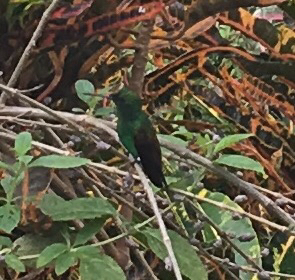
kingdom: Animalia
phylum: Chordata
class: Aves
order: Apodiformes
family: Trochilidae
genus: Saucerottia
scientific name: Saucerottia tobaci
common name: Copper-rumped hummingbird
